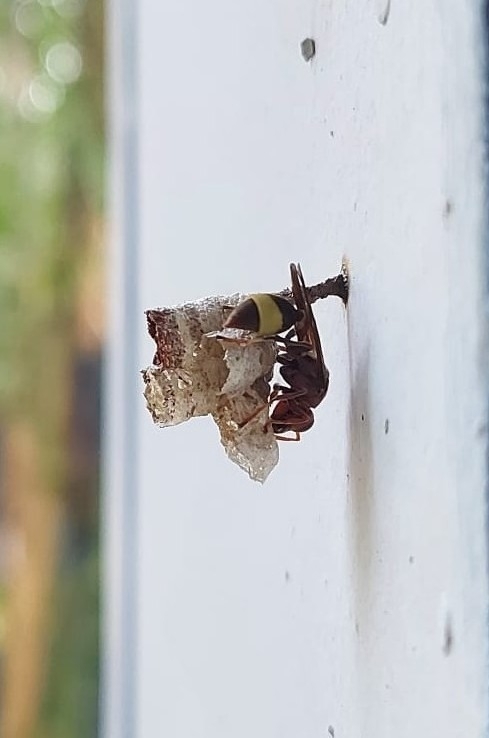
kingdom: Animalia
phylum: Arthropoda
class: Insecta
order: Hymenoptera
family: Vespidae
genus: Ropalidia
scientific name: Ropalidia
